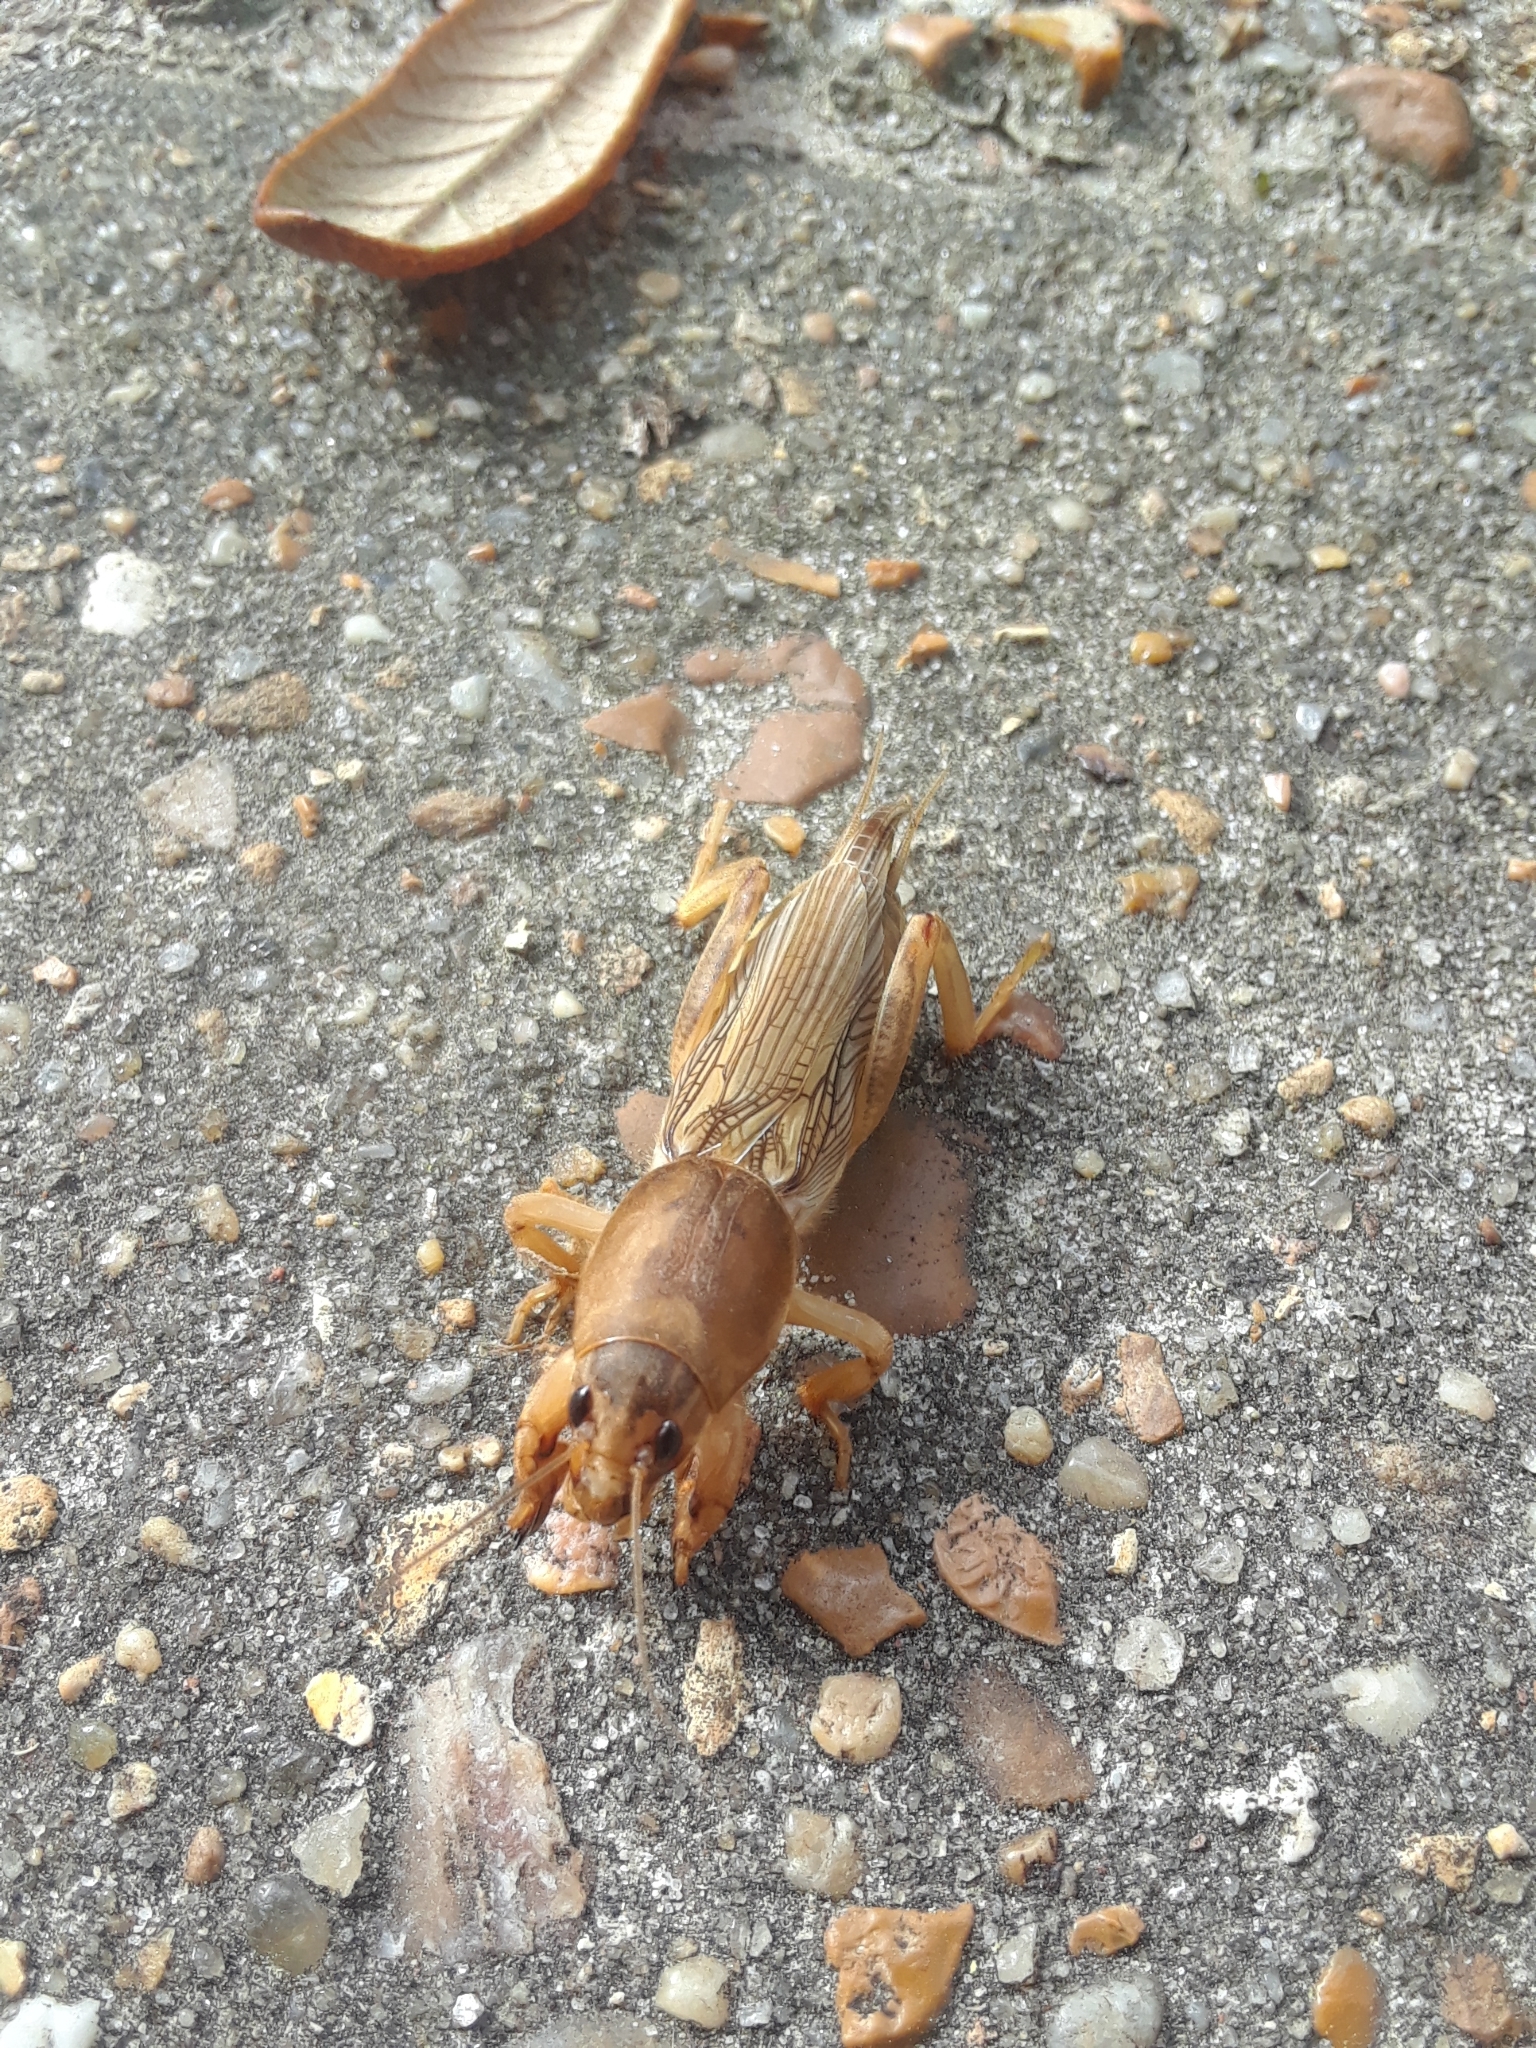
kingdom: Animalia
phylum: Arthropoda
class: Insecta
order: Orthoptera
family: Gryllotalpidae
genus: Neoscapteriscus
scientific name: Neoscapteriscus vicinus
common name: Tawny mole cricket
